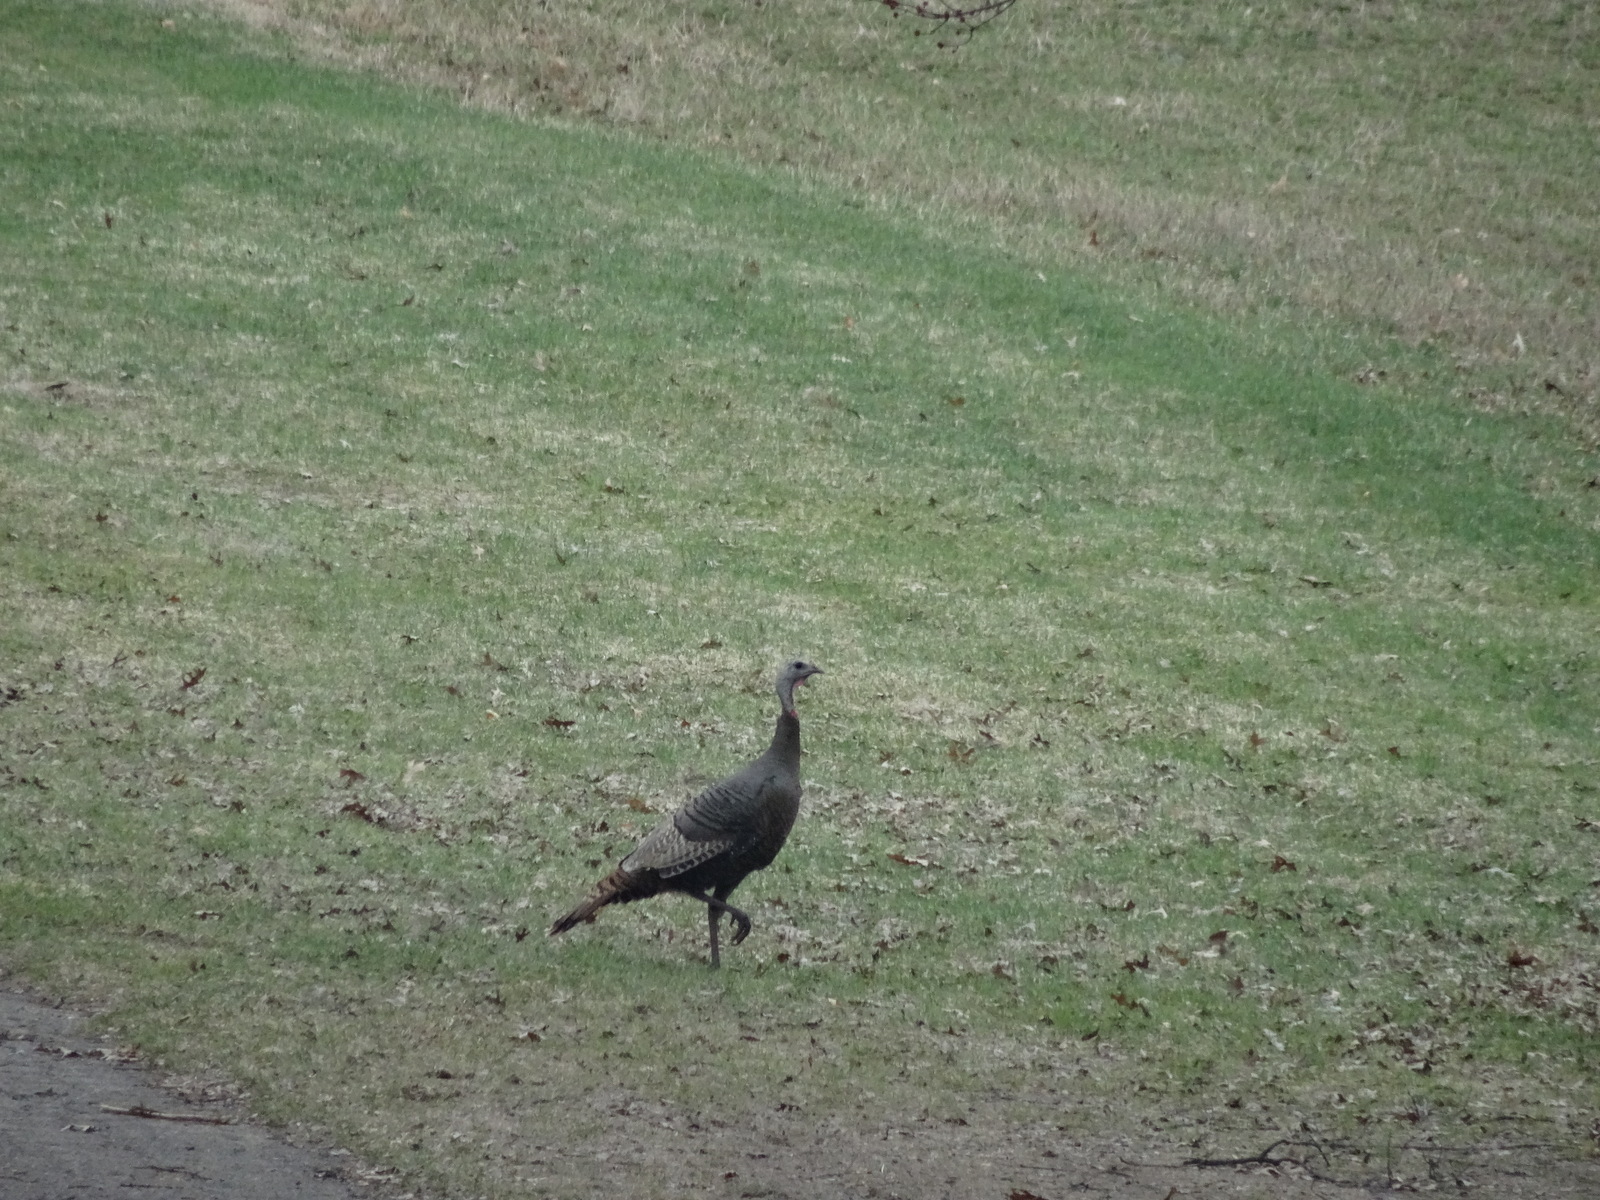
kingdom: Animalia
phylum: Chordata
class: Aves
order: Galliformes
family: Phasianidae
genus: Meleagris
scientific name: Meleagris gallopavo
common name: Wild turkey
